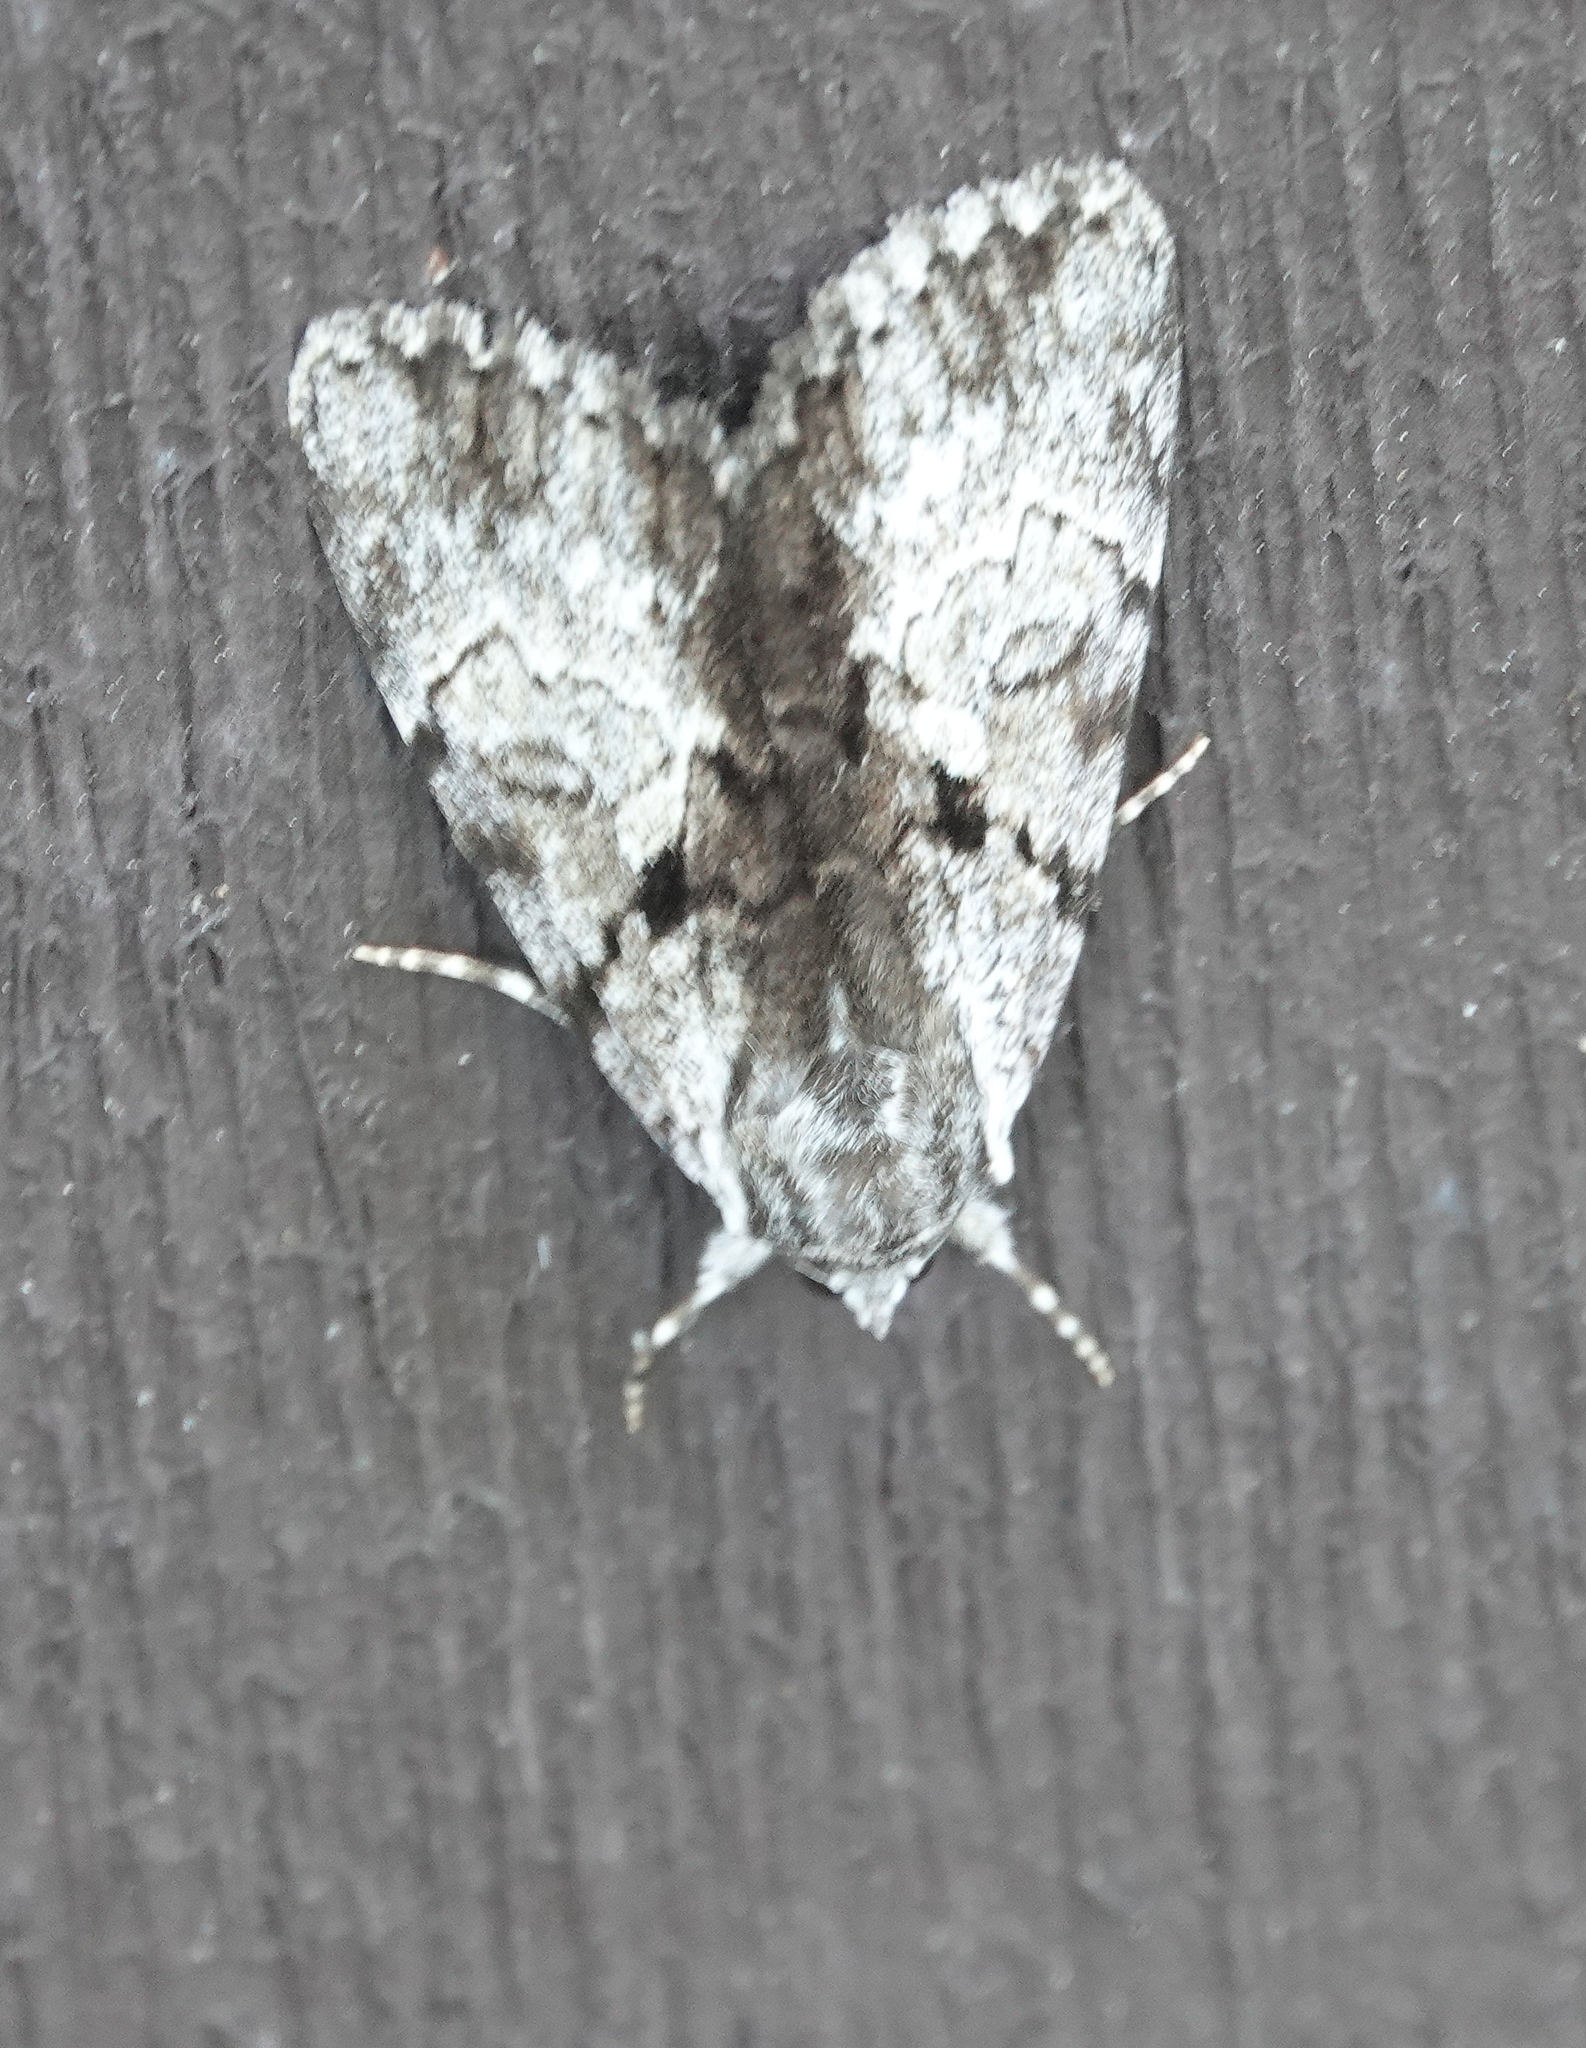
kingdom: Animalia
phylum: Arthropoda
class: Insecta
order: Lepidoptera
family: Erebidae
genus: Catocala
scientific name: Catocala andromedae
